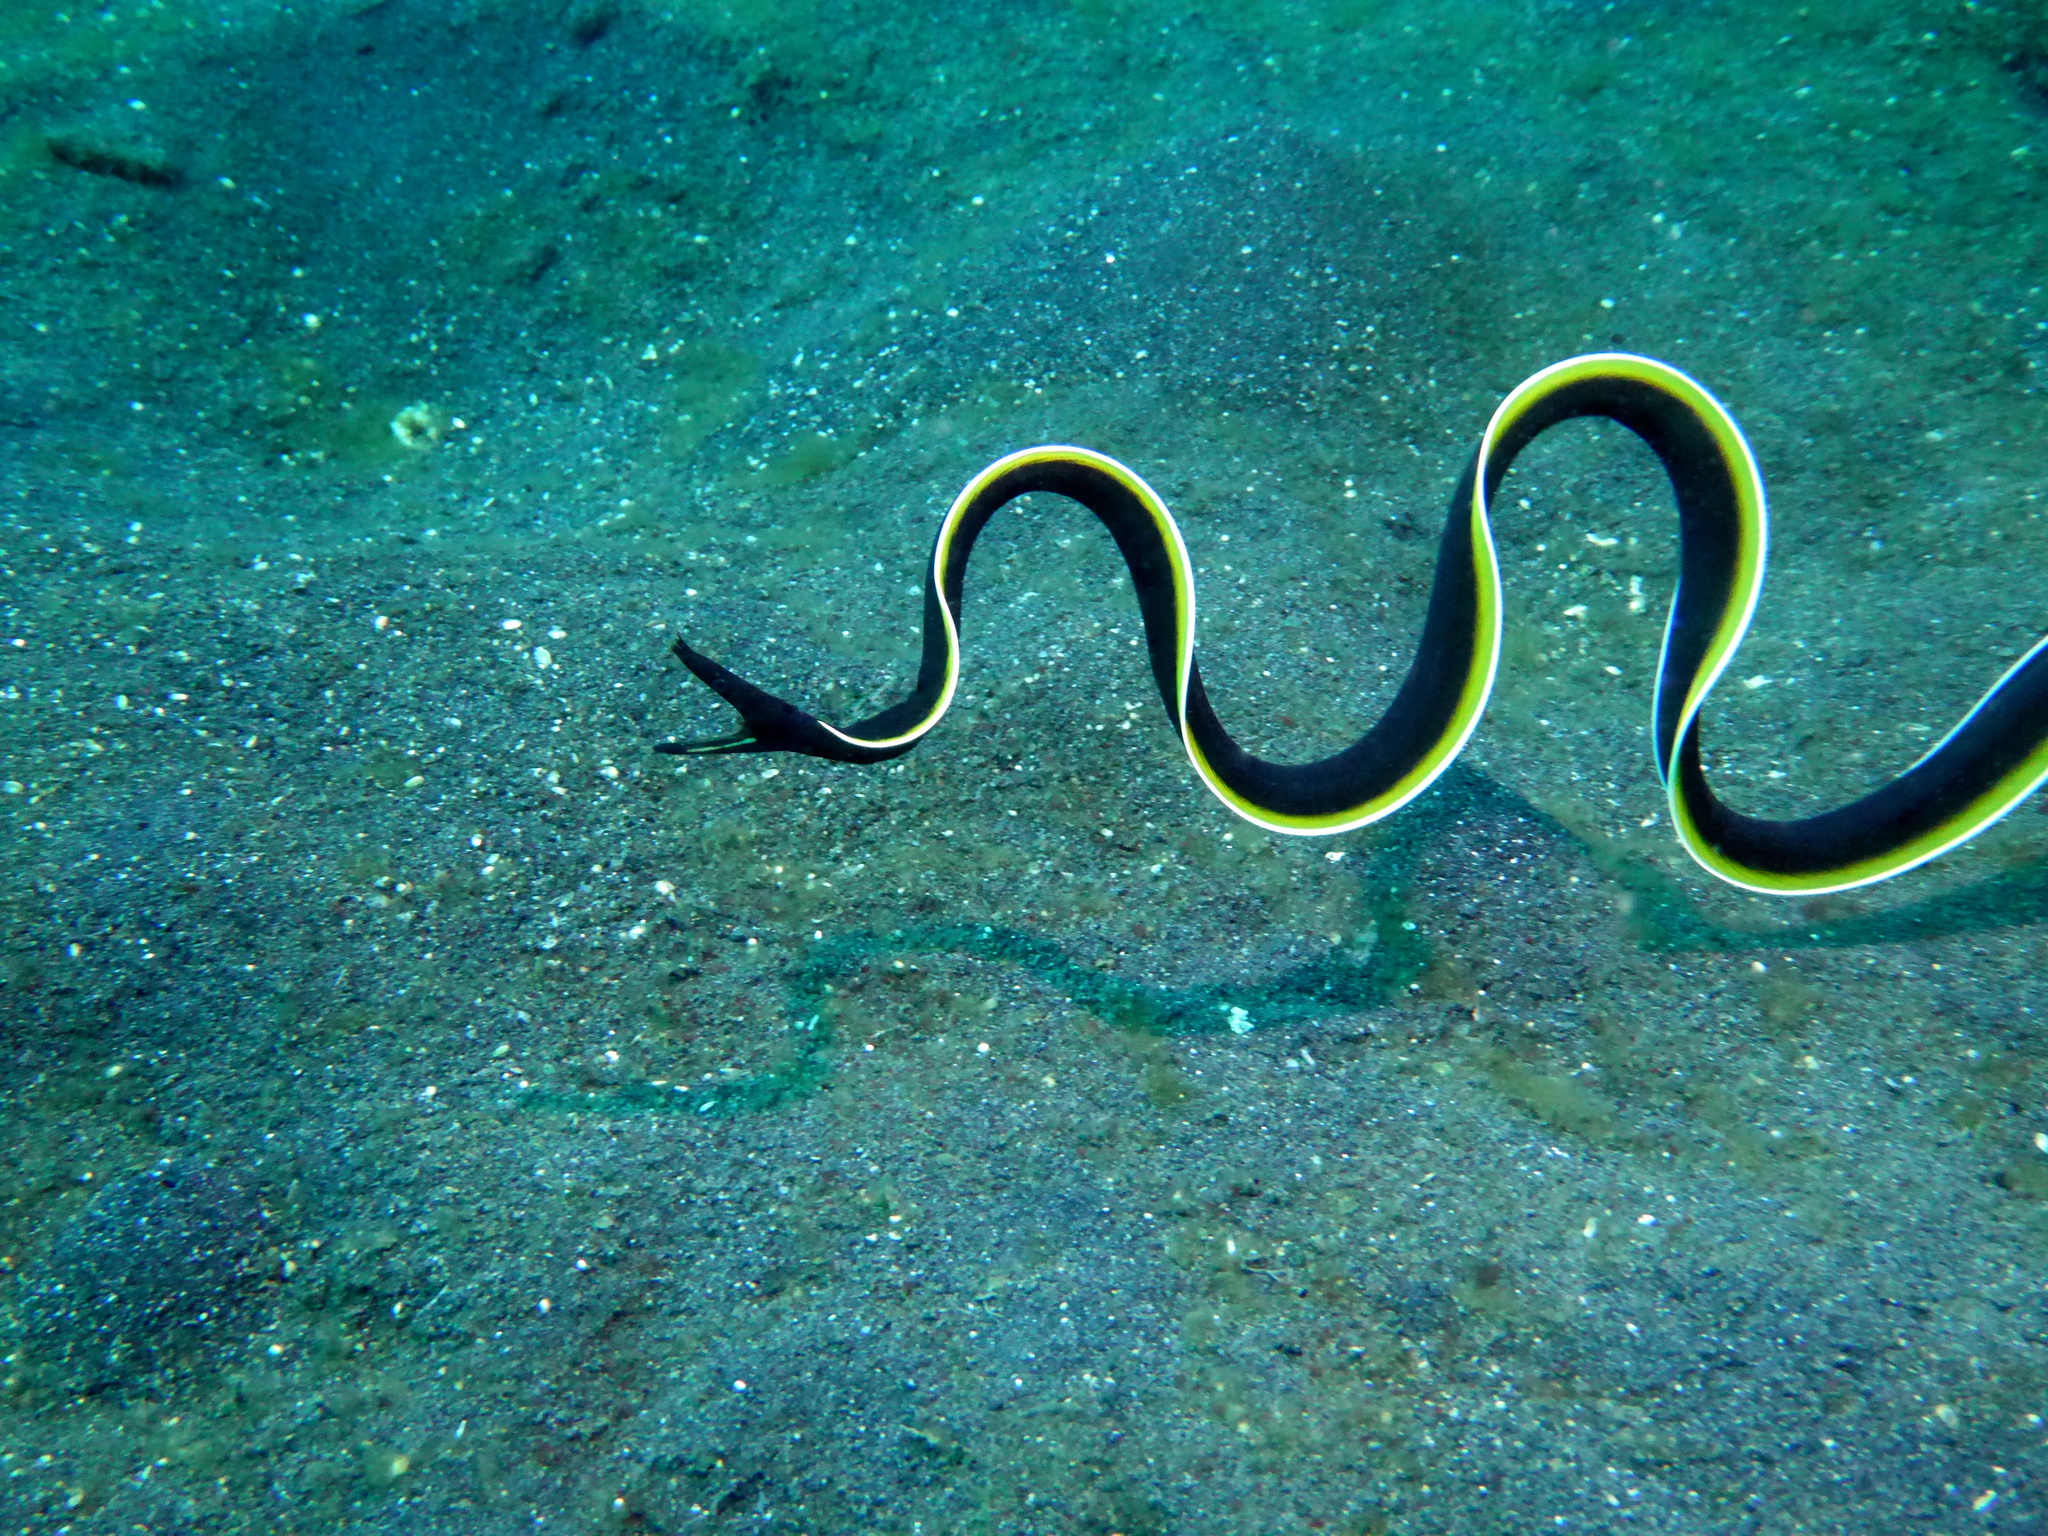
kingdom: Animalia
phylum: Chordata
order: Anguilliformes
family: Muraenidae
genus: Rhinomuraena
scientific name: Rhinomuraena quaesita
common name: Ribbon eel
